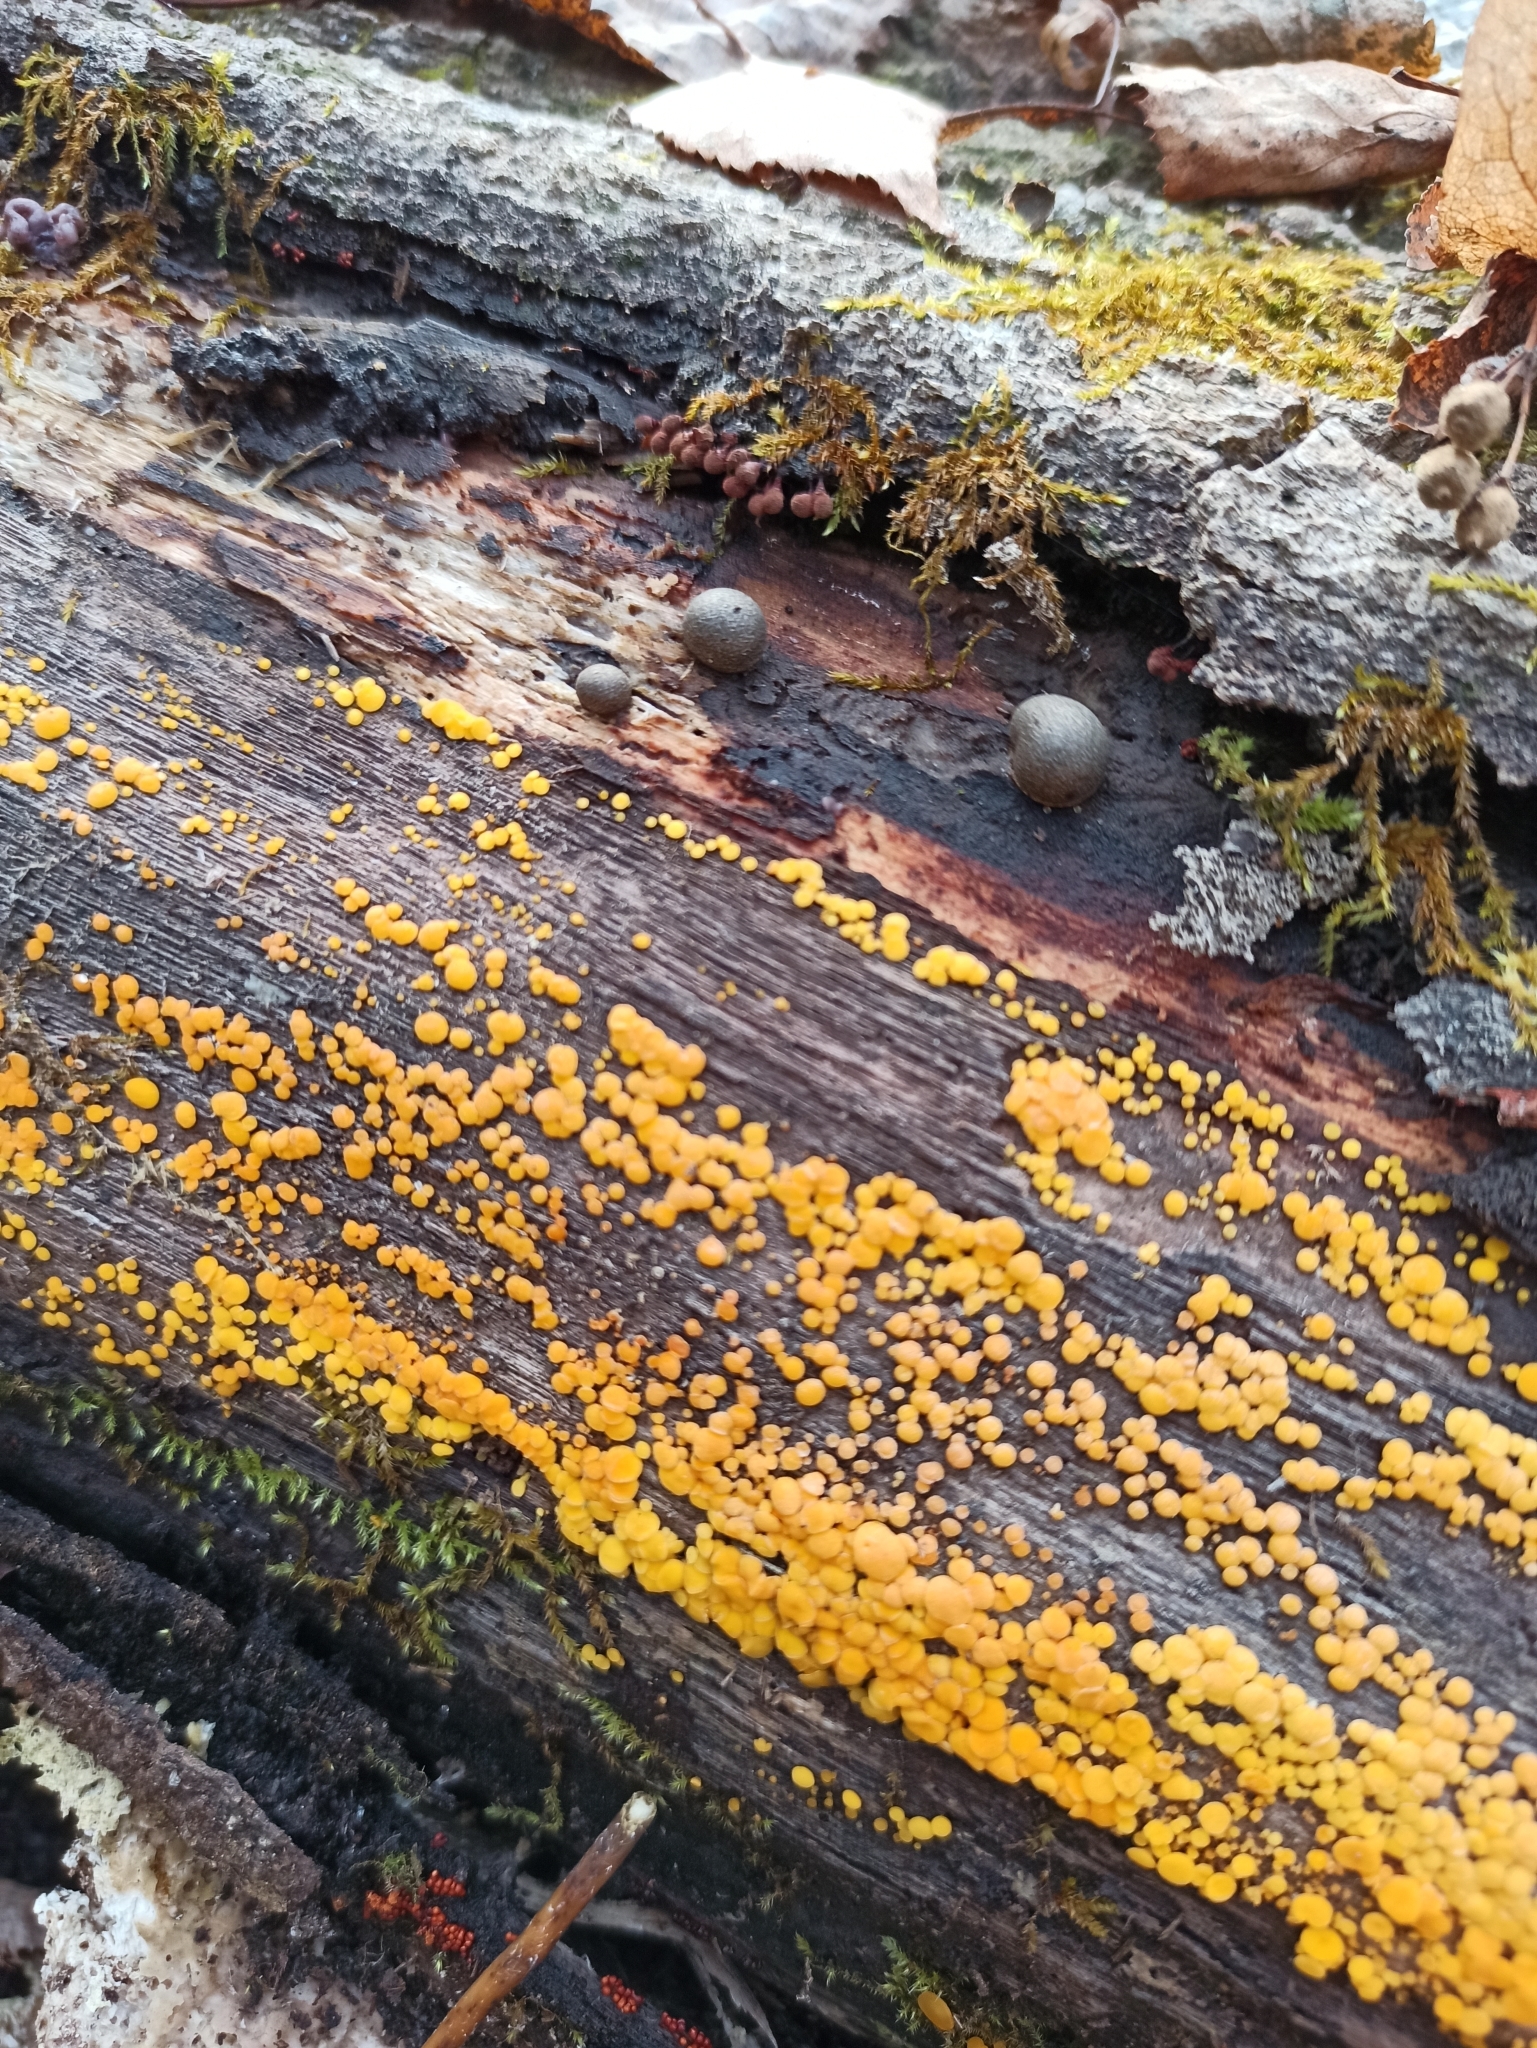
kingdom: Fungi
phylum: Ascomycota
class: Leotiomycetes
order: Helotiales
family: Pezizellaceae
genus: Calycina
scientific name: Calycina citrina
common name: Yellow fairy cups
